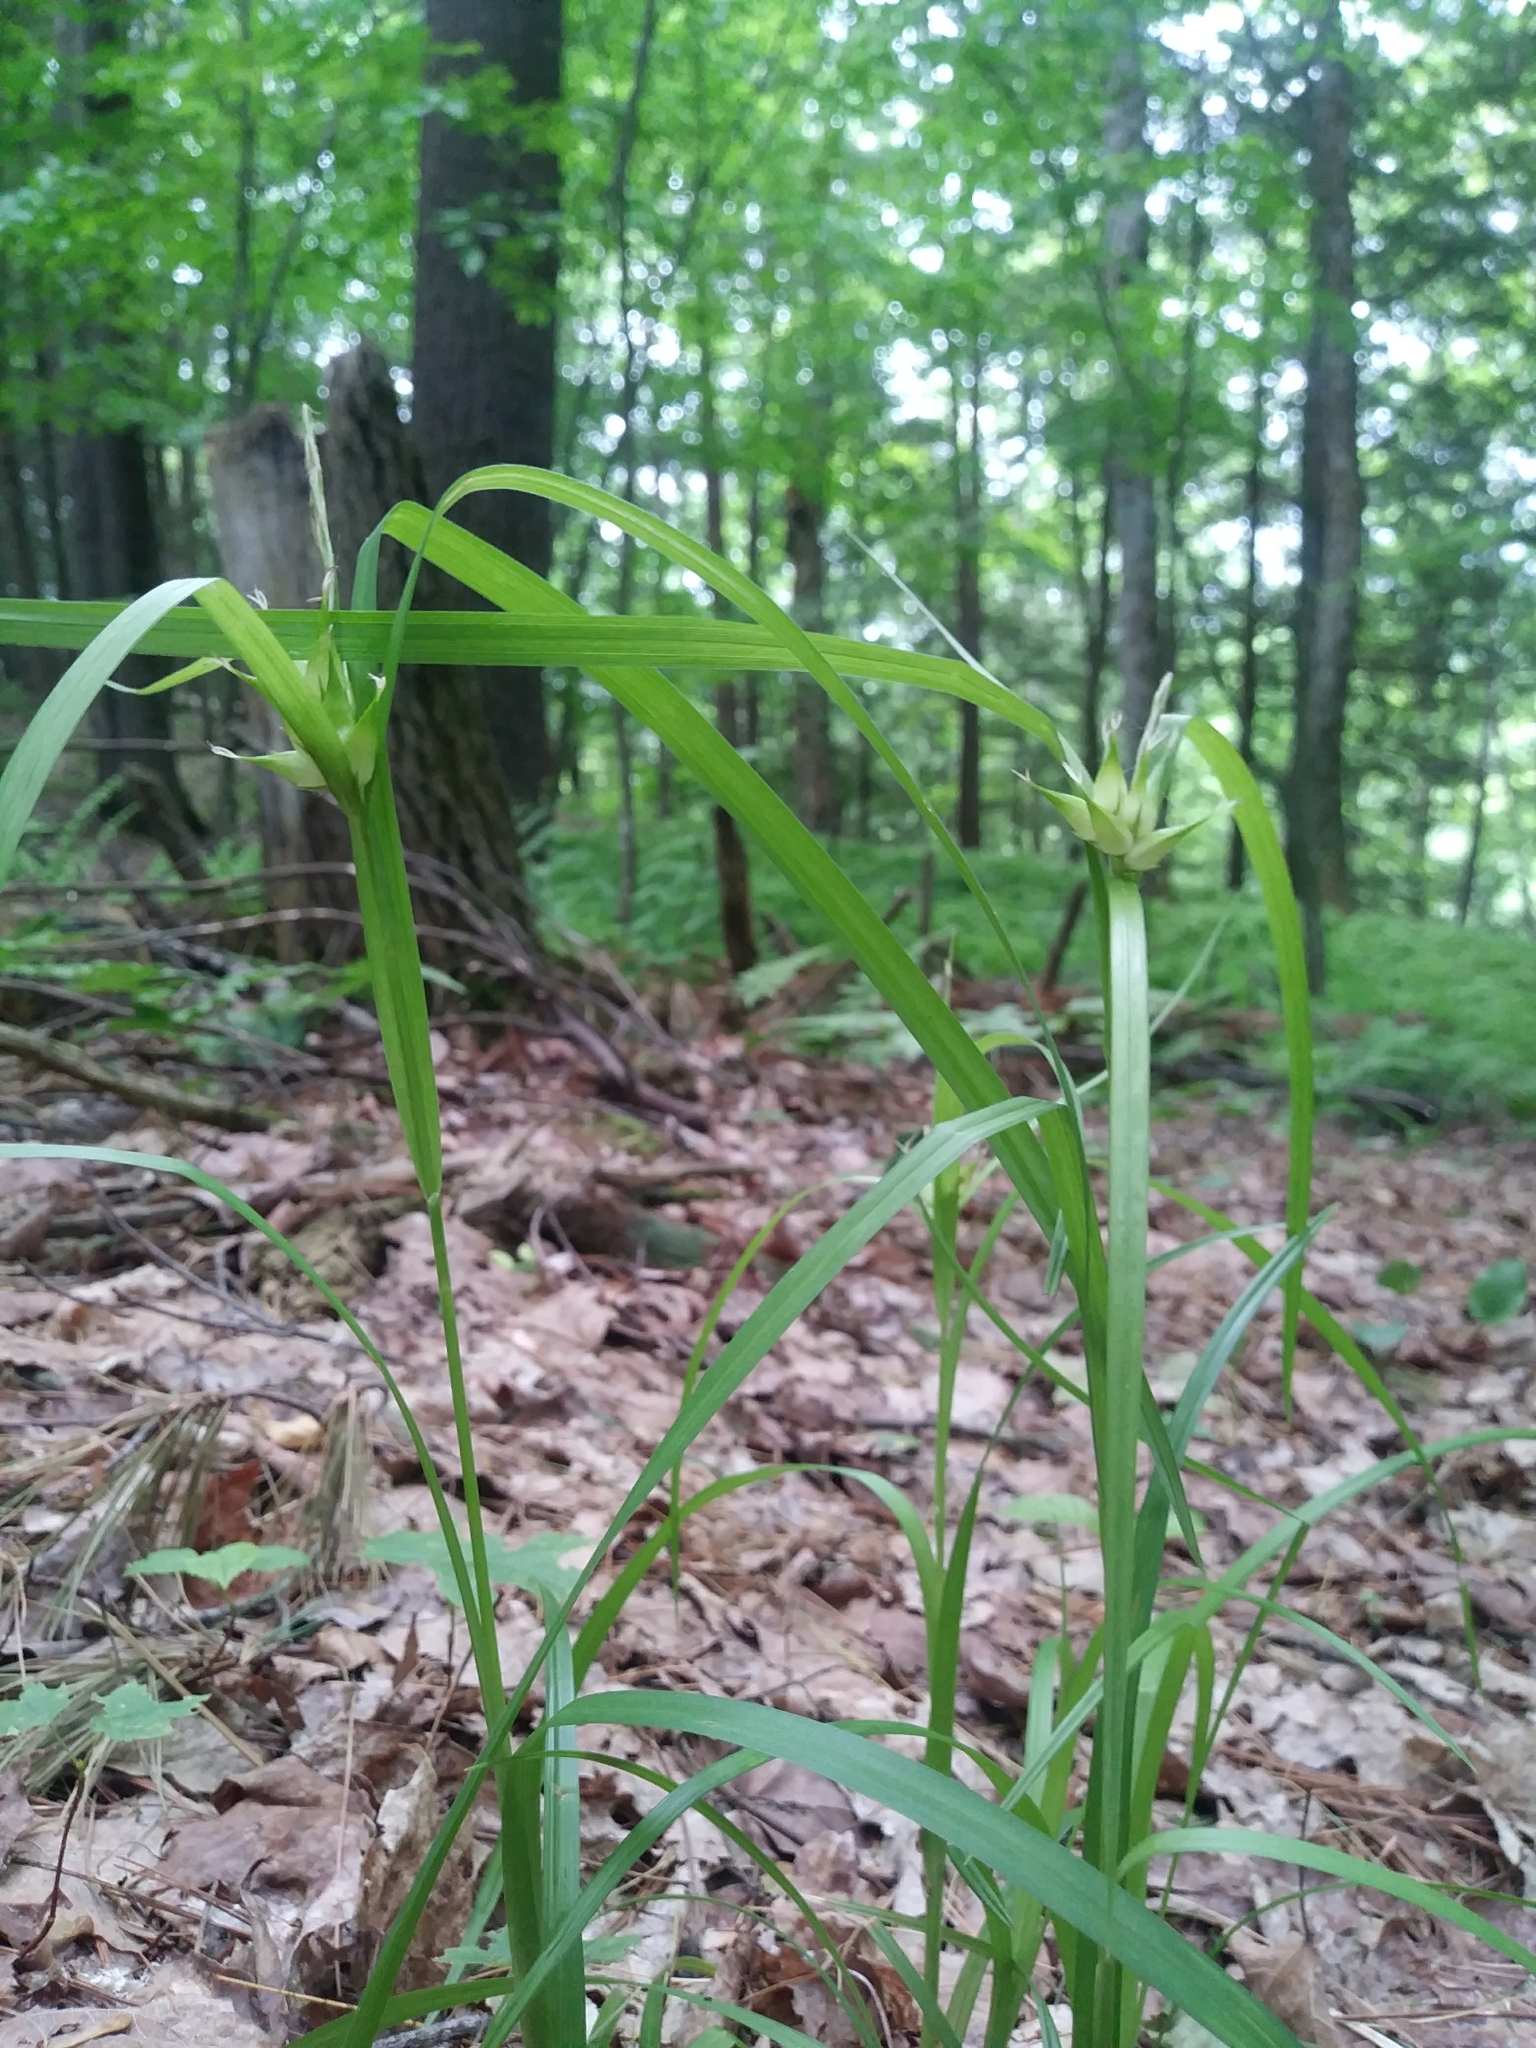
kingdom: Plantae
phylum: Tracheophyta
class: Liliopsida
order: Poales
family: Cyperaceae
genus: Carex
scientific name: Carex intumescens
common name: Greater bladder sedge
